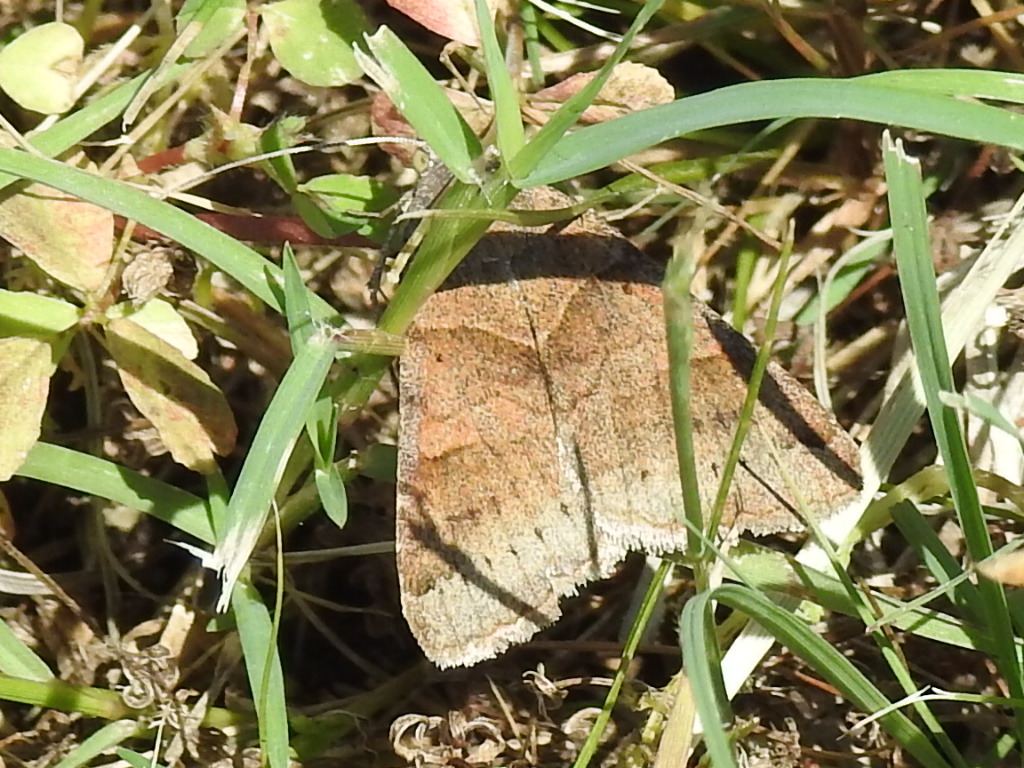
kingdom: Animalia
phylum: Arthropoda
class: Insecta
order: Lepidoptera
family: Erebidae
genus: Caenurgina
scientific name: Caenurgina erechtea
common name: Forage looper moth
